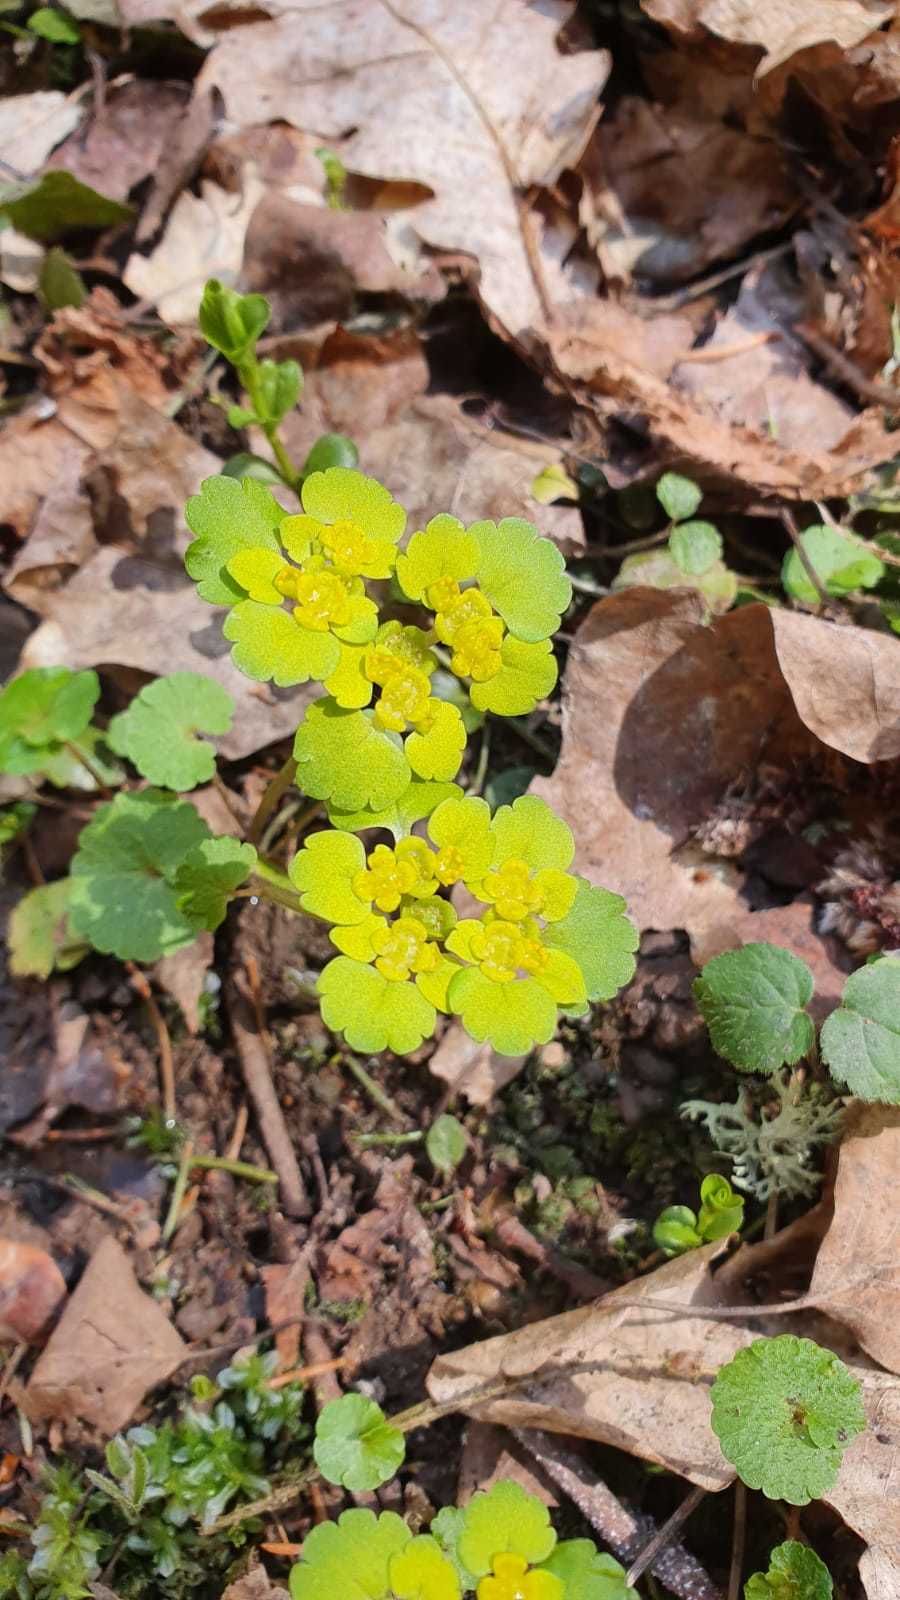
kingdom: Plantae
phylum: Tracheophyta
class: Magnoliopsida
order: Saxifragales
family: Saxifragaceae
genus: Chrysosplenium
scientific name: Chrysosplenium alternifolium
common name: Alternate-leaved golden-saxifrage
